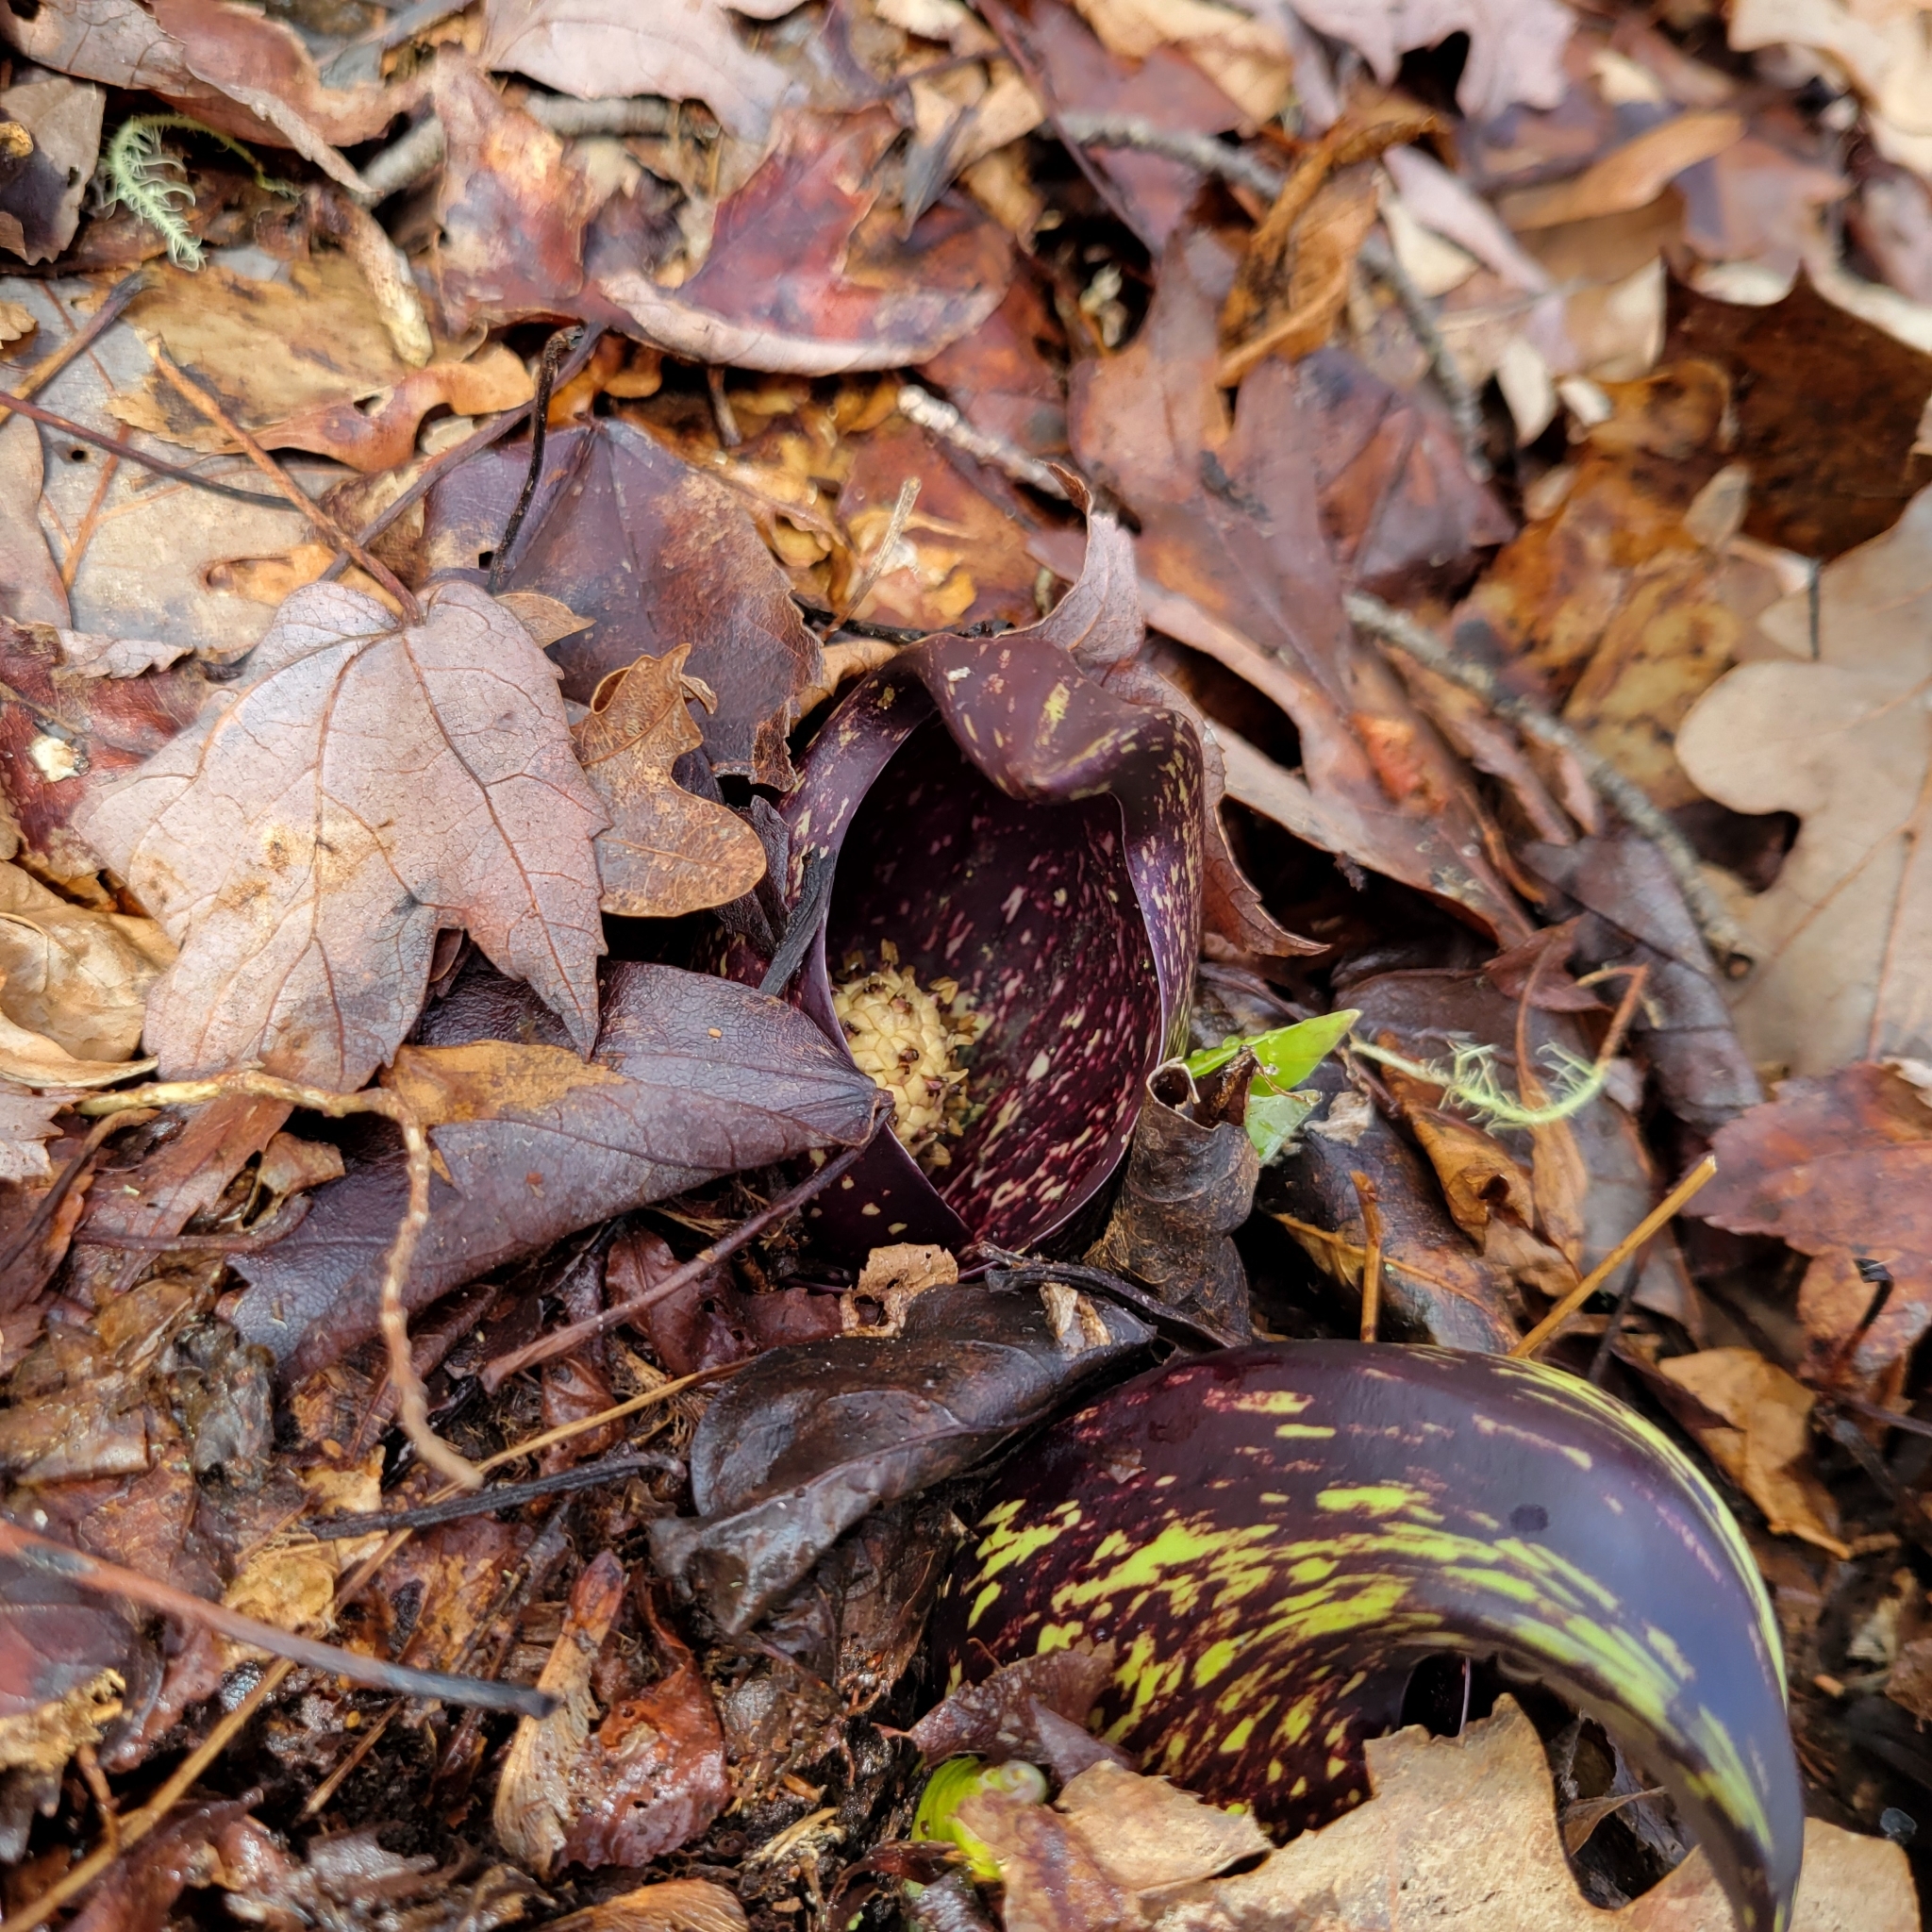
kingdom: Plantae
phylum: Tracheophyta
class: Liliopsida
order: Alismatales
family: Araceae
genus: Symplocarpus
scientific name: Symplocarpus foetidus
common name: Eastern skunk cabbage
